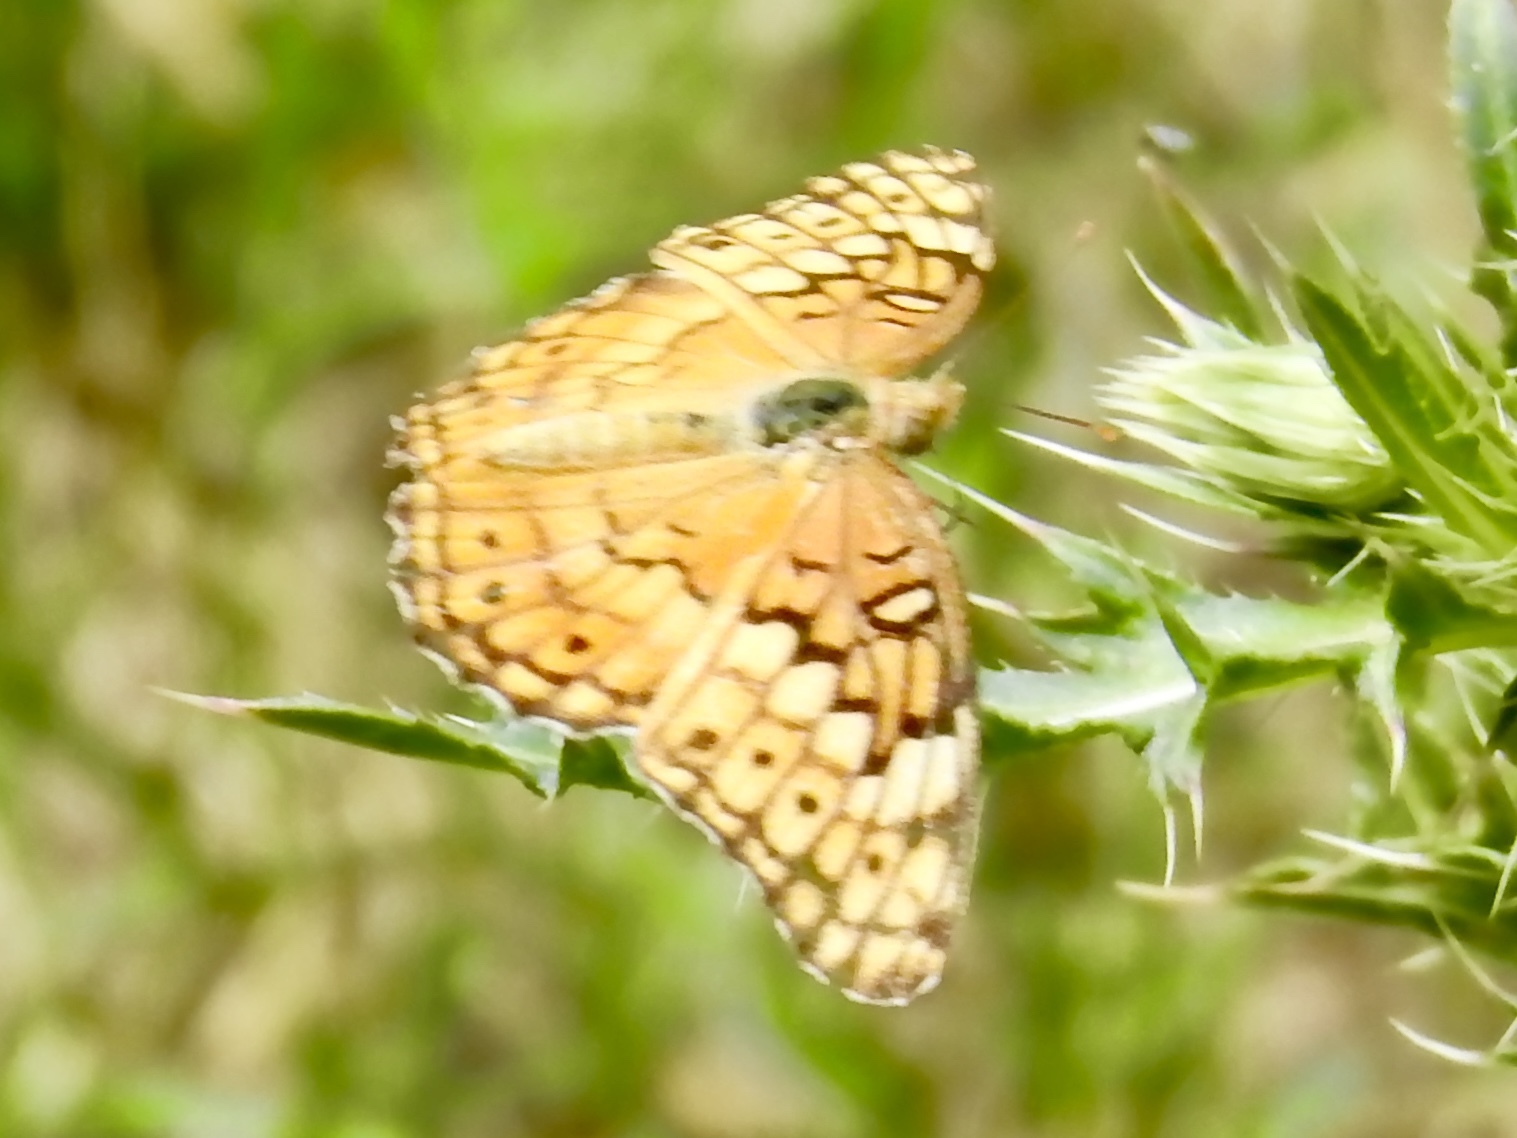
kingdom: Animalia
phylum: Arthropoda
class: Insecta
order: Lepidoptera
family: Nymphalidae
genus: Euptoieta
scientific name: Euptoieta claudia
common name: Variegated fritillary
